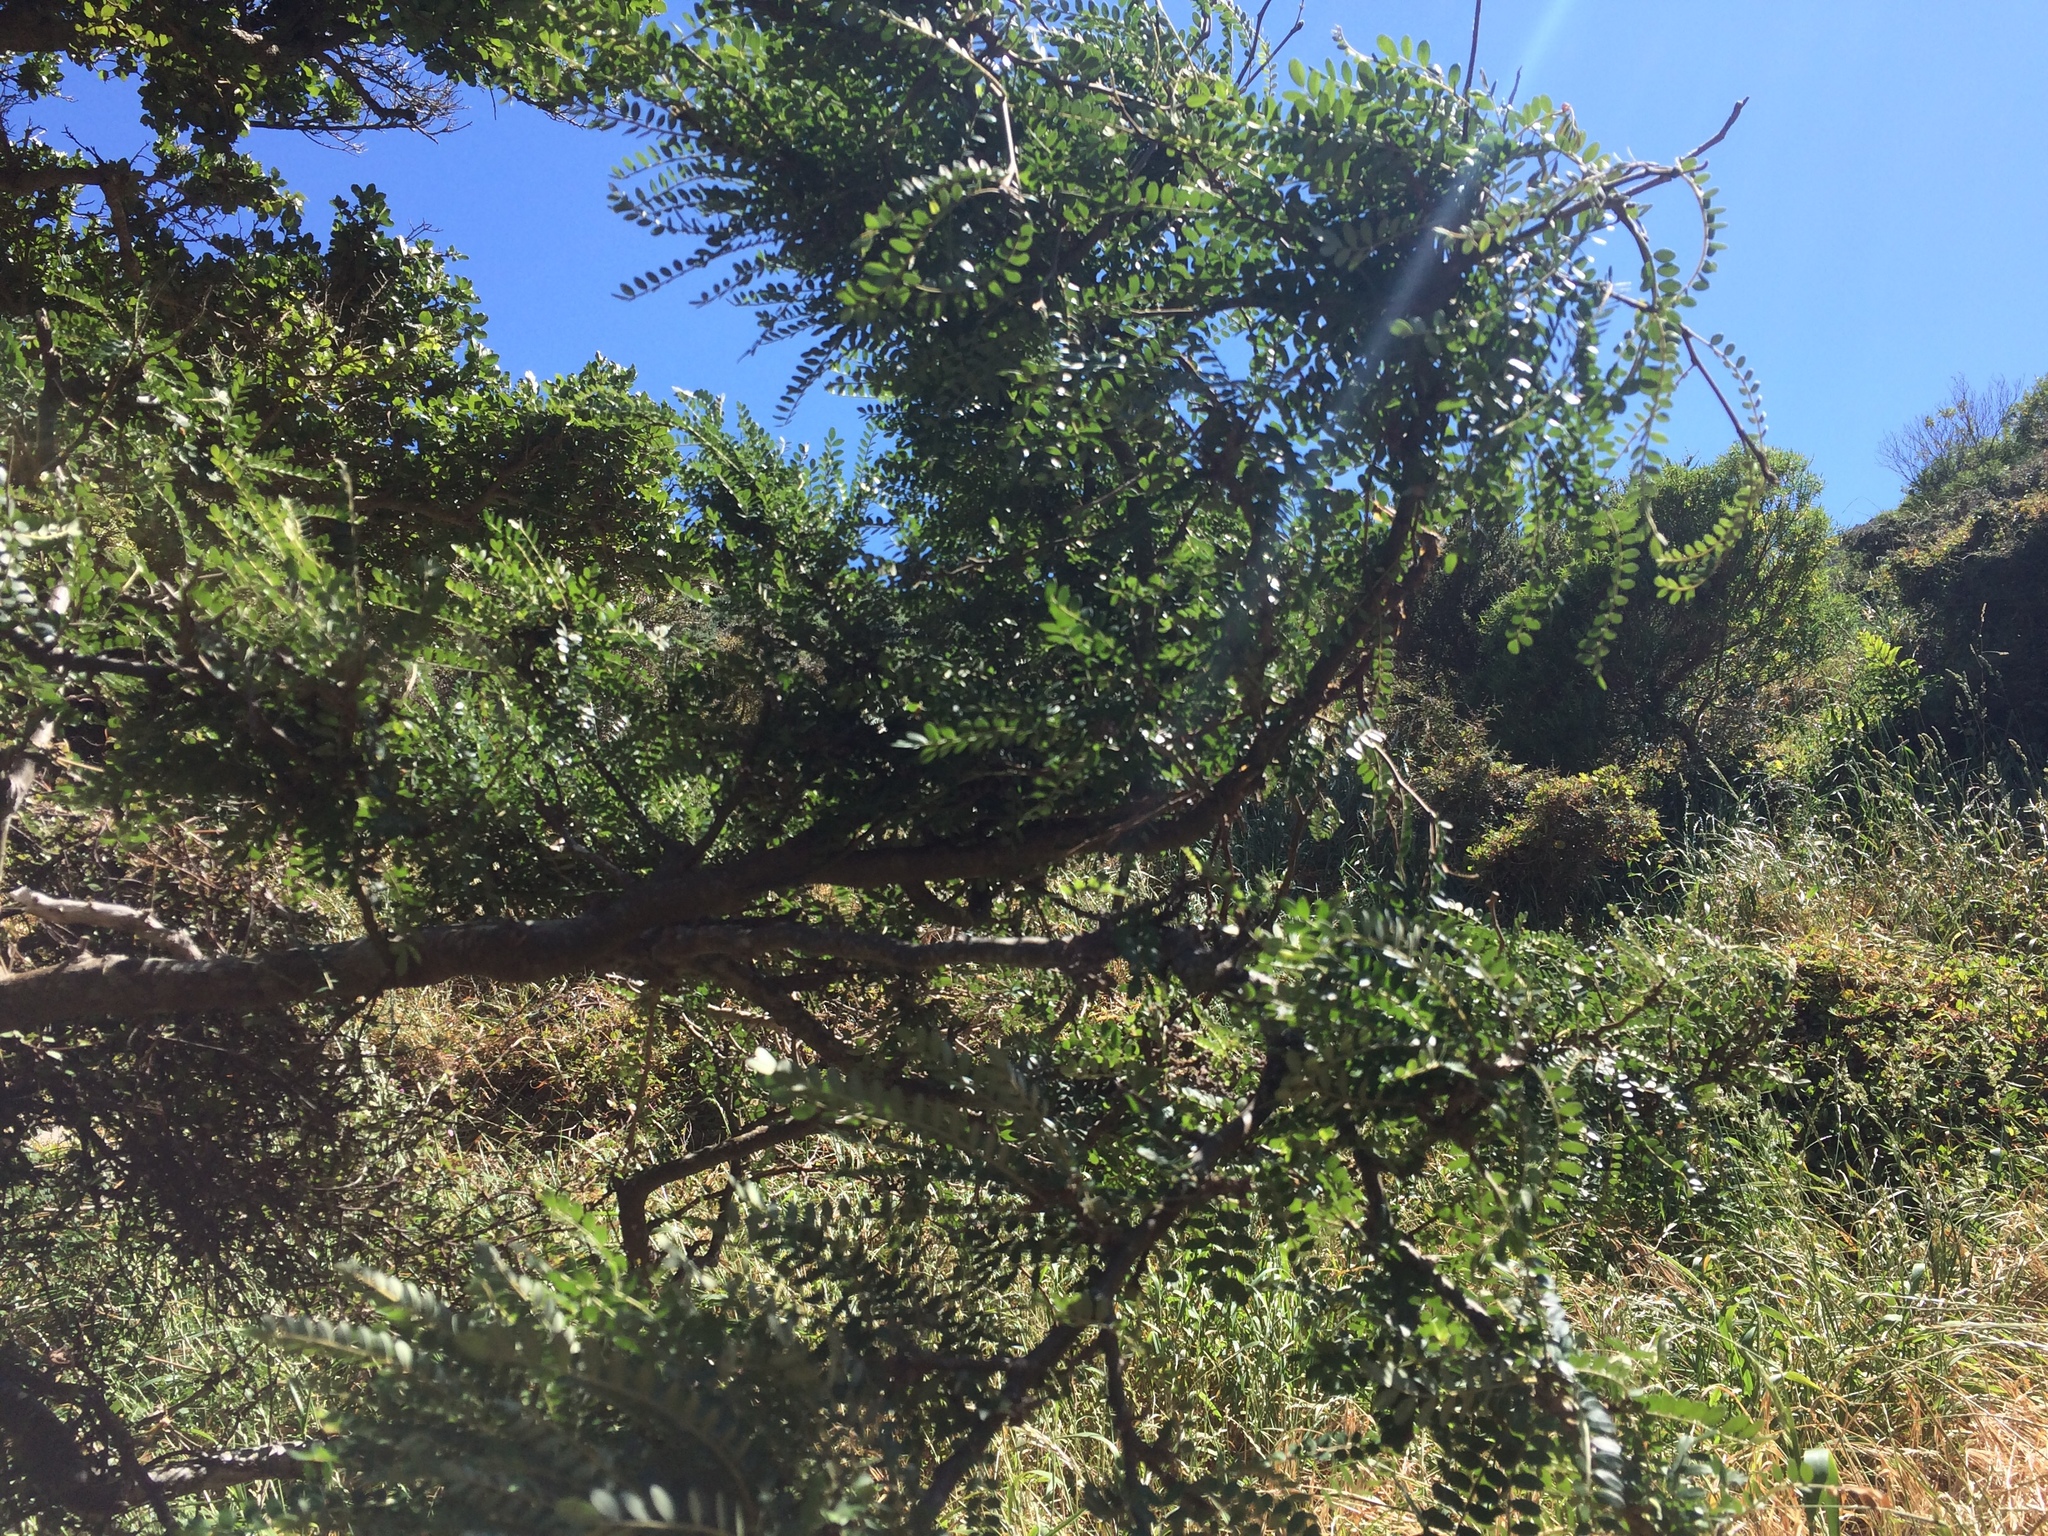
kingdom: Plantae
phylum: Tracheophyta
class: Magnoliopsida
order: Fabales
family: Fabaceae
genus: Sophora
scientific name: Sophora molloyi
